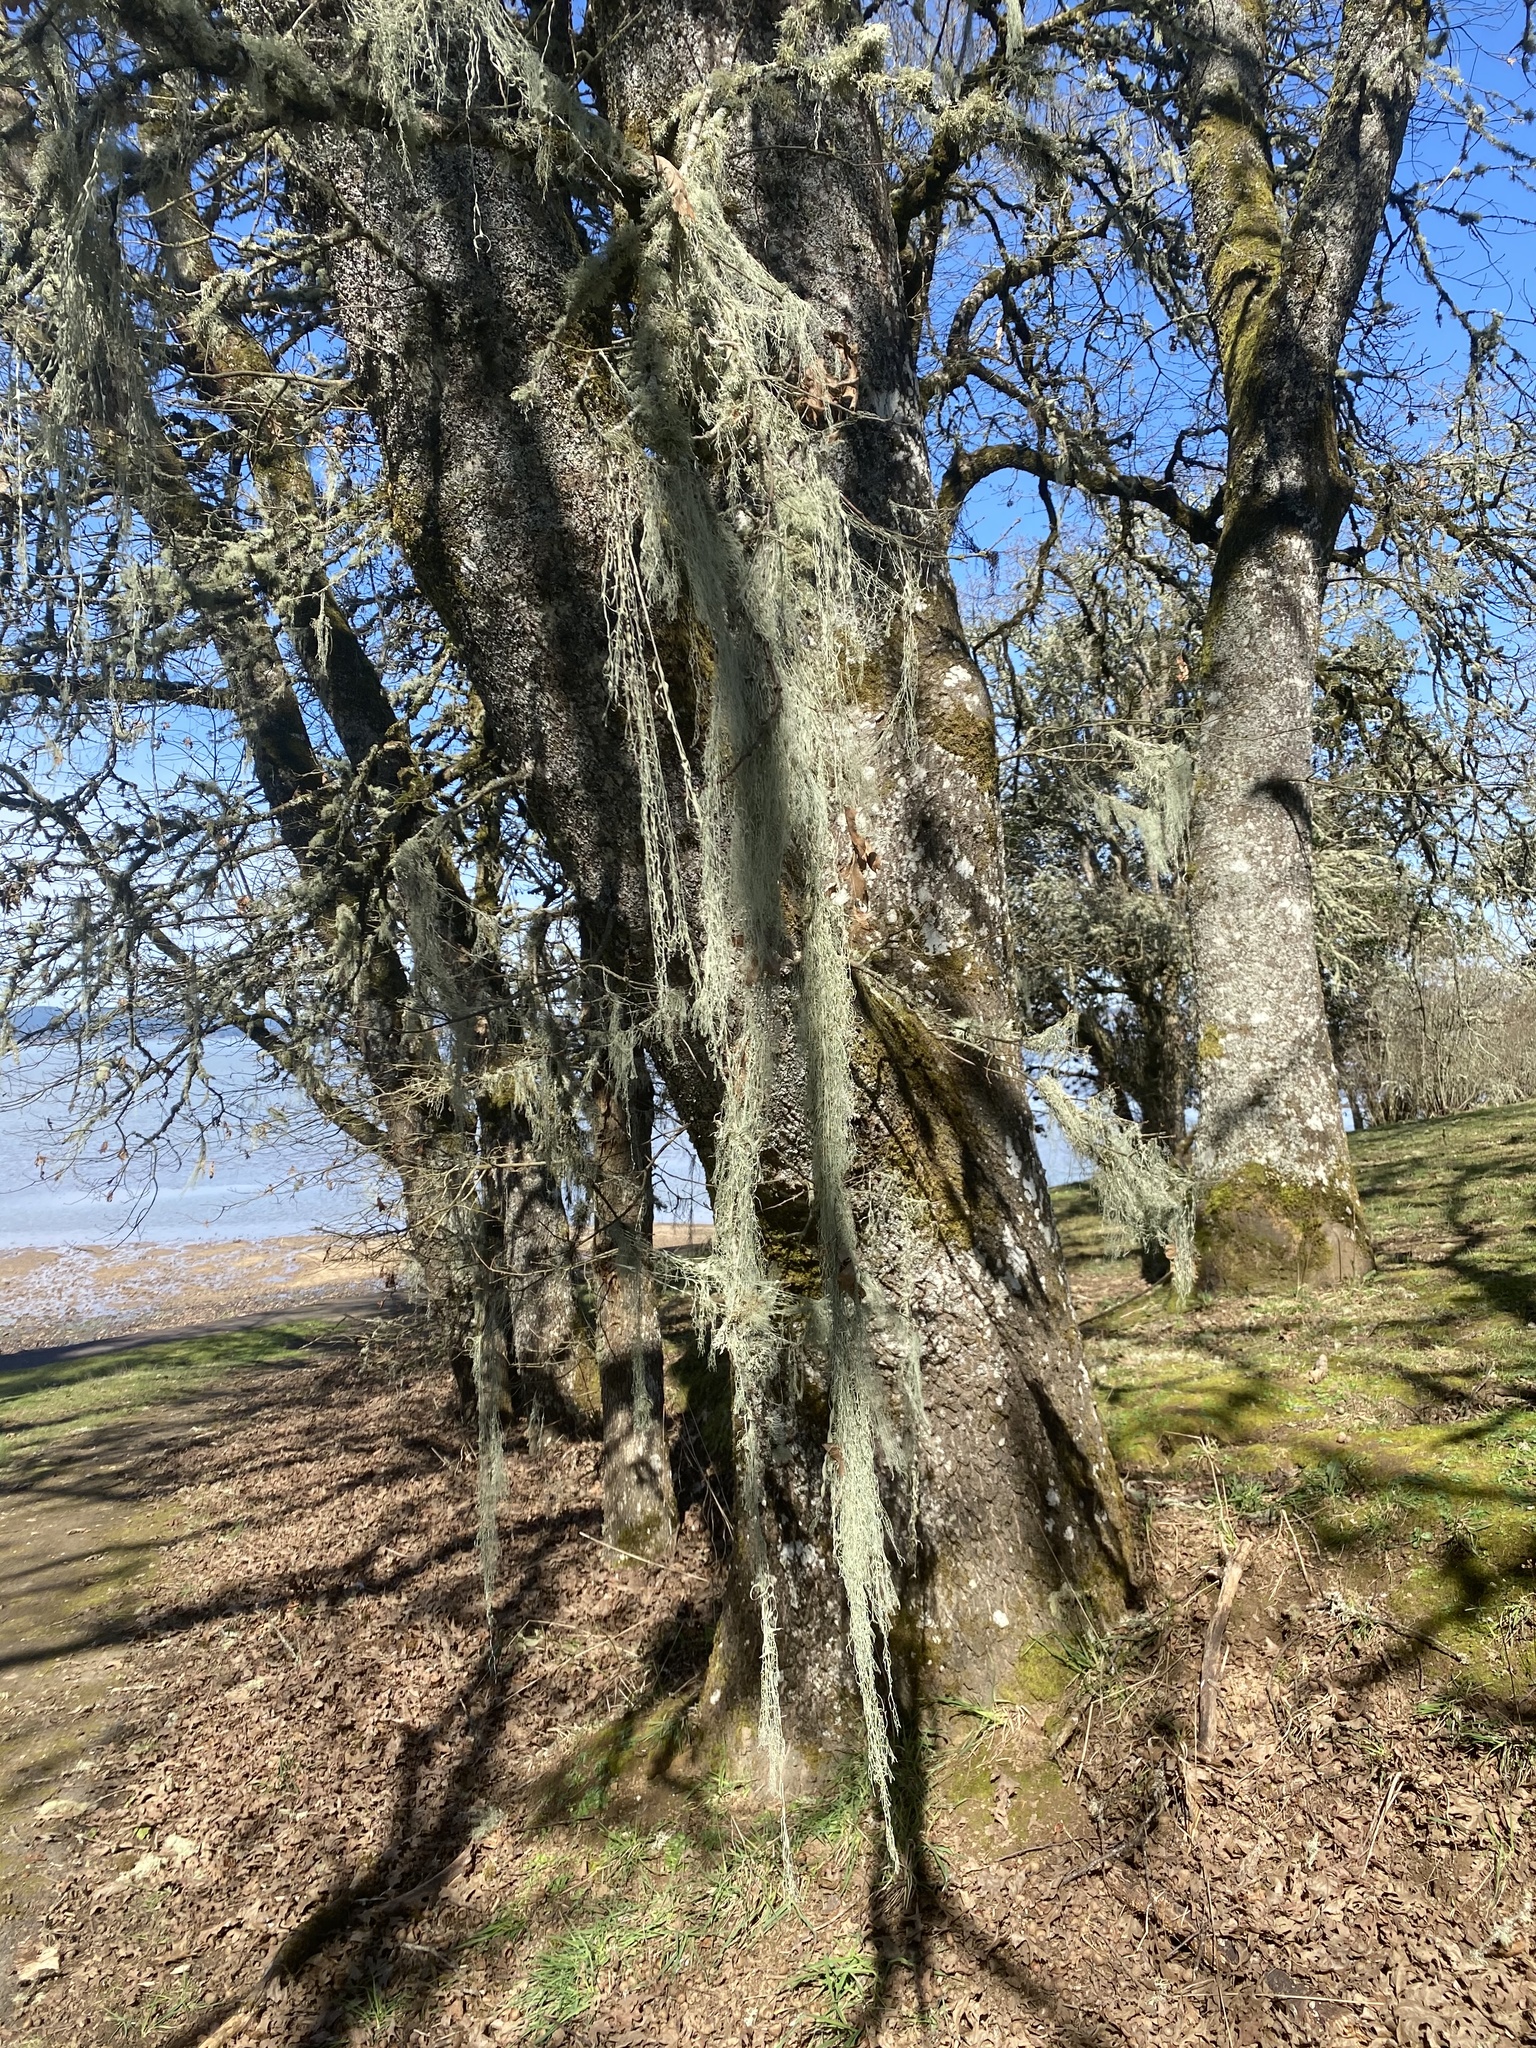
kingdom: Fungi
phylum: Ascomycota
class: Lecanoromycetes
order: Lecanorales
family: Ramalinaceae
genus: Ramalina
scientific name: Ramalina menziesii
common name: Lace lichen
